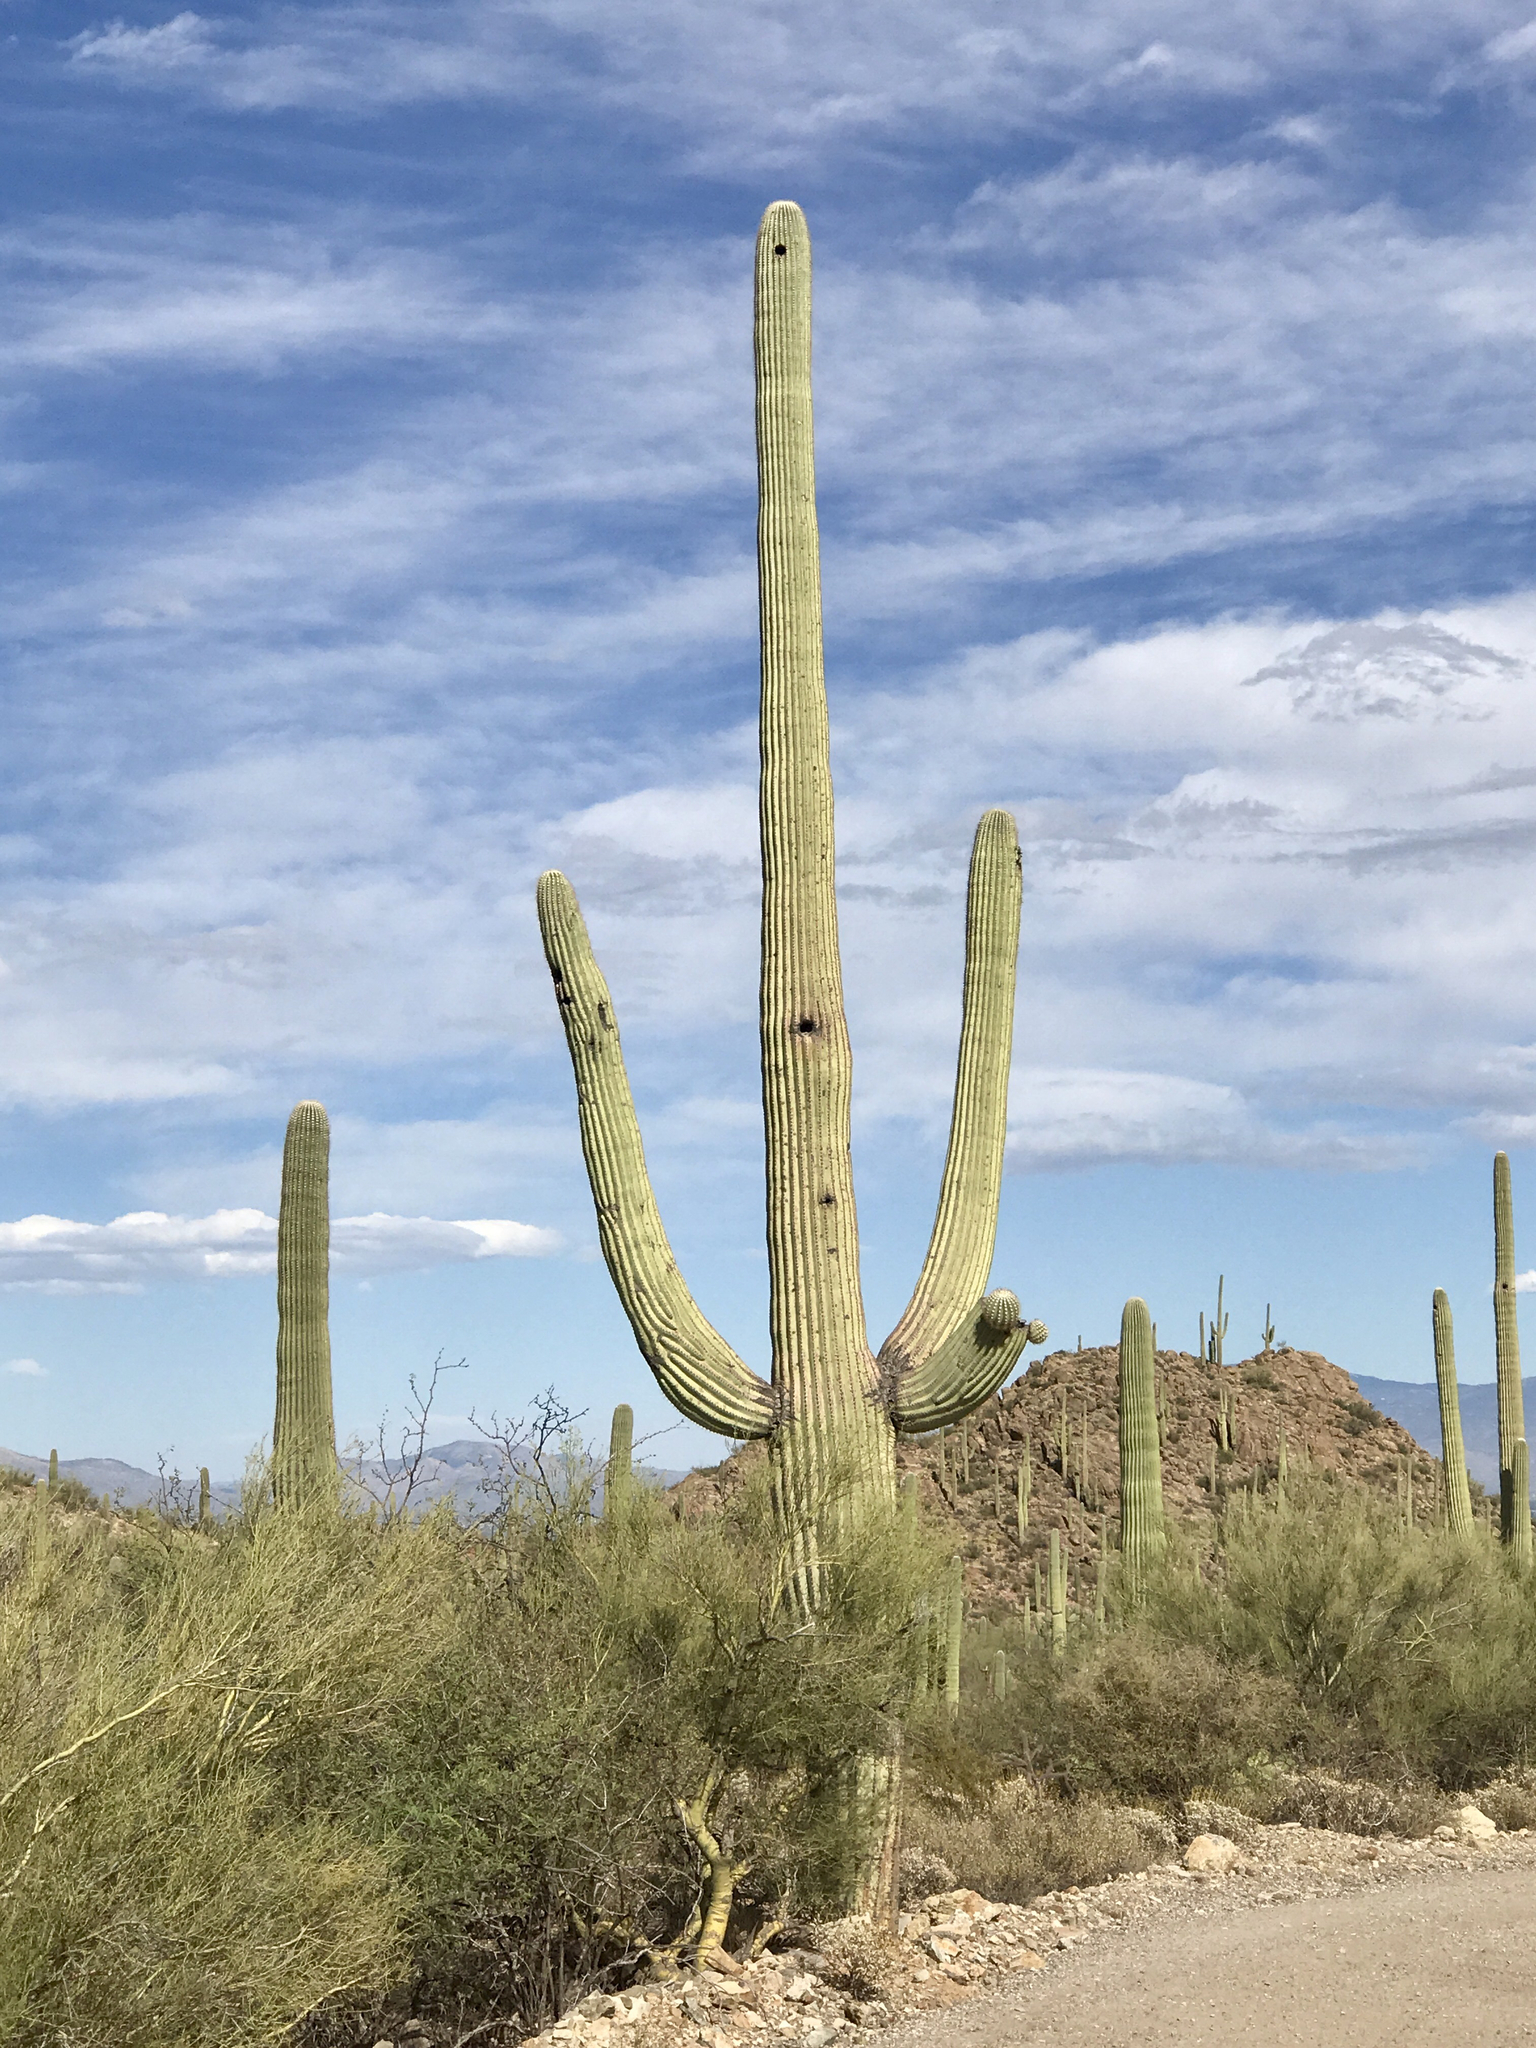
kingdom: Plantae
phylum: Tracheophyta
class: Magnoliopsida
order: Caryophyllales
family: Cactaceae
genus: Carnegiea
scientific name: Carnegiea gigantea
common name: Saguaro
